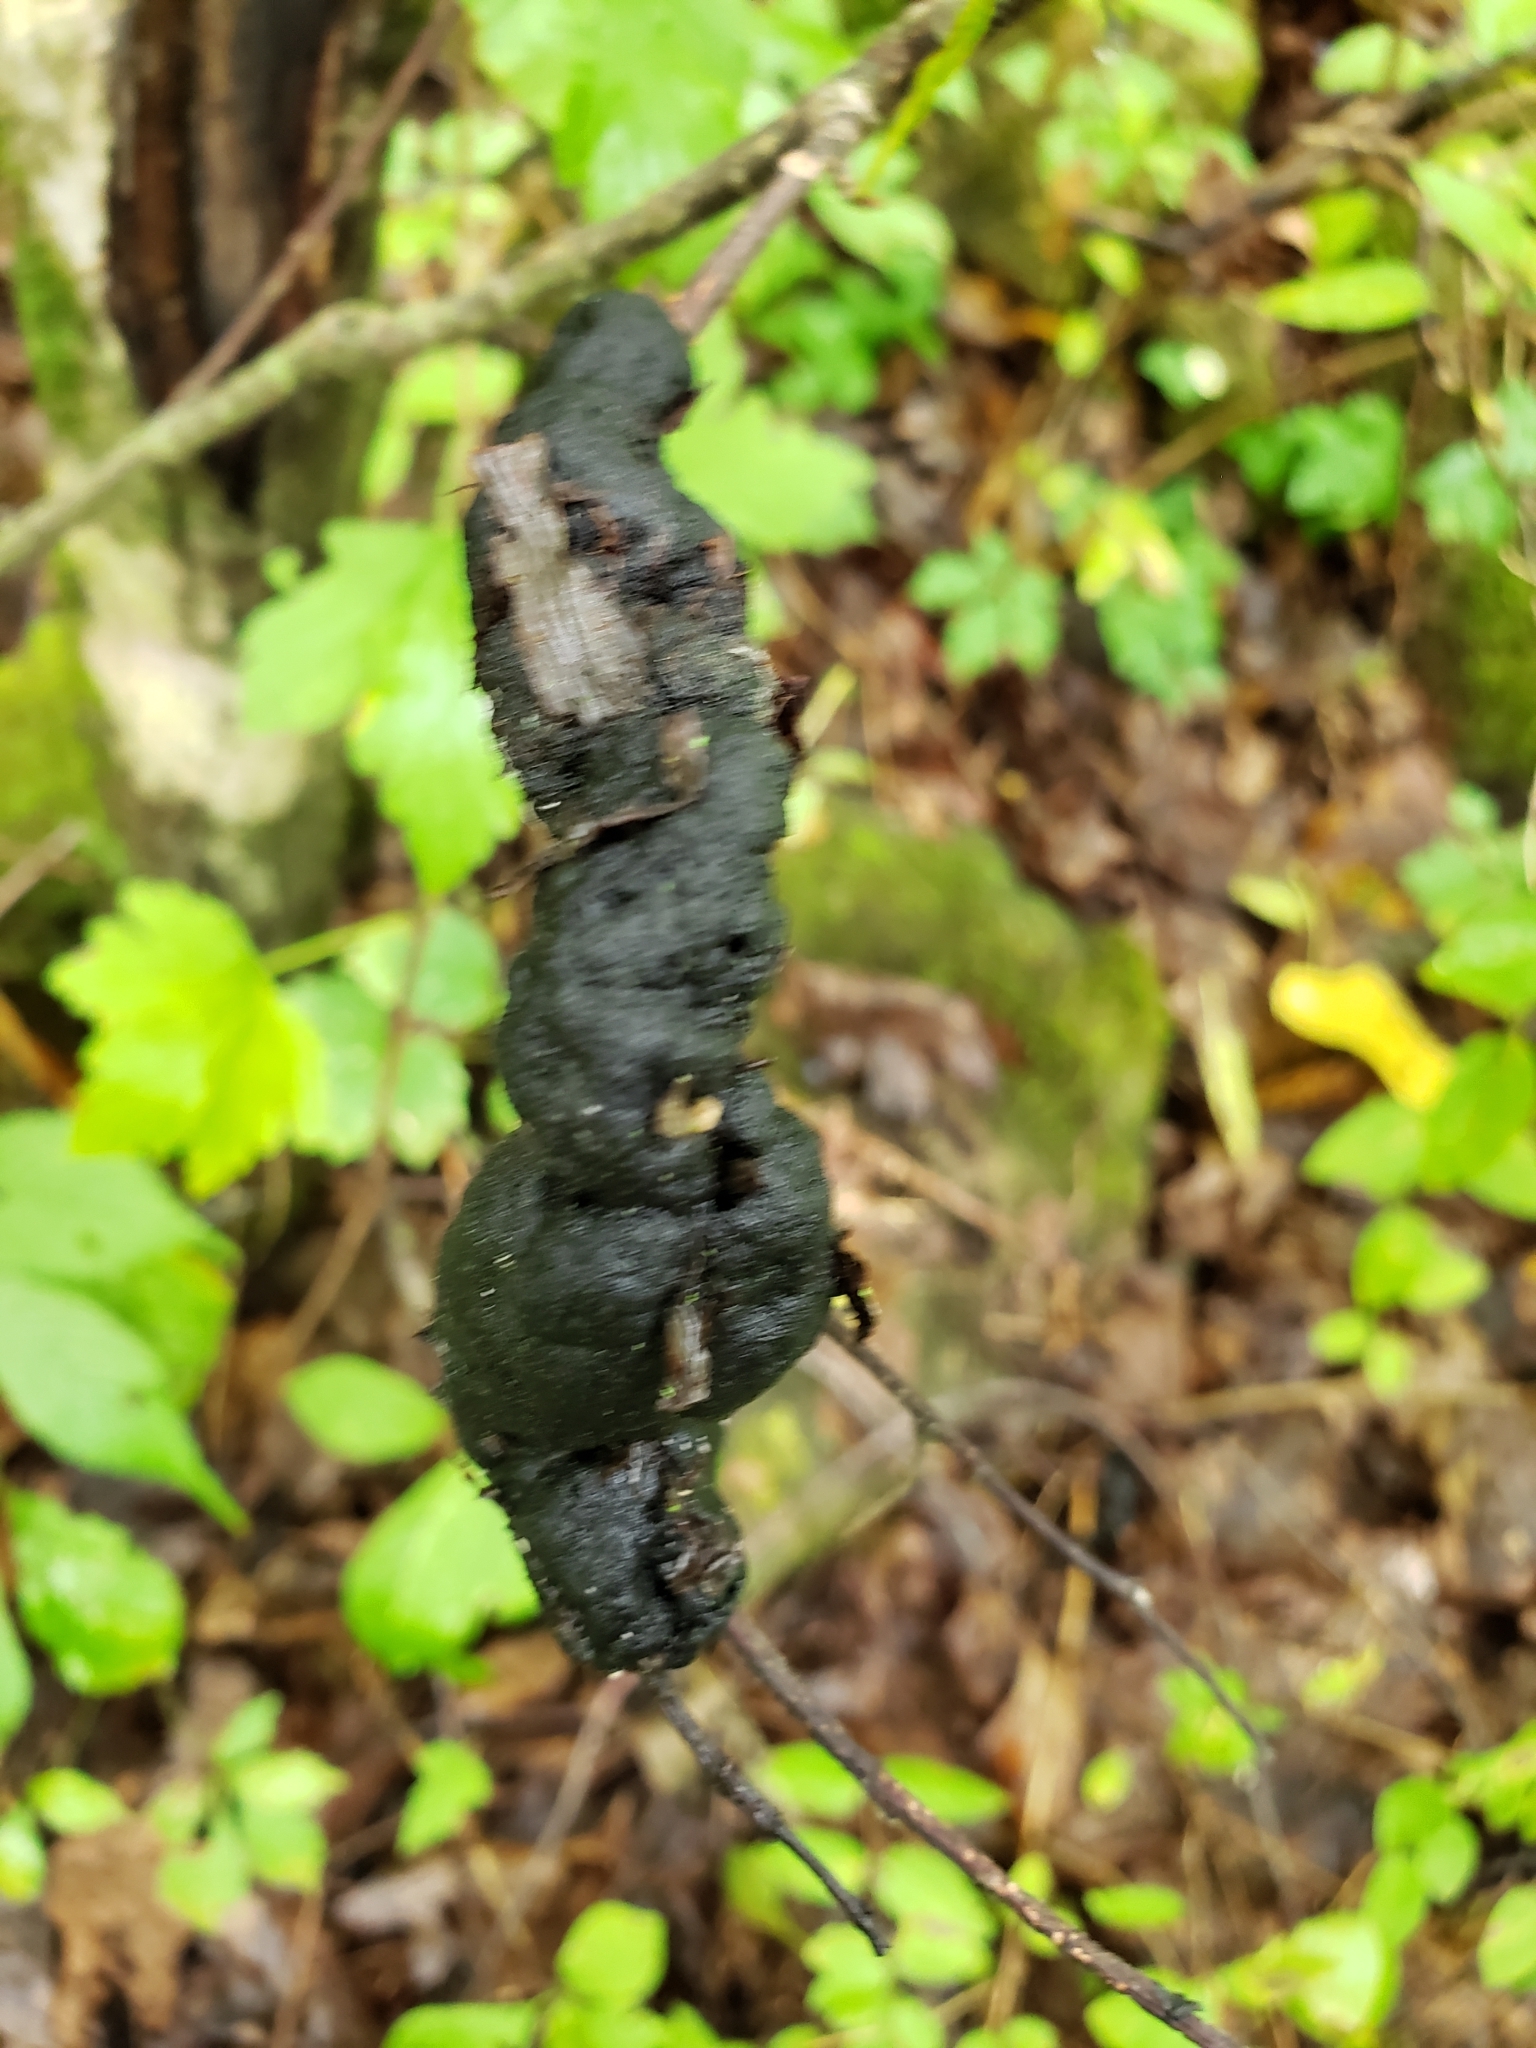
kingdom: Fungi
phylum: Ascomycota
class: Dothideomycetes
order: Venturiales
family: Venturiaceae
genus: Apiosporina
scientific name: Apiosporina morbosa
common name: Black knot
